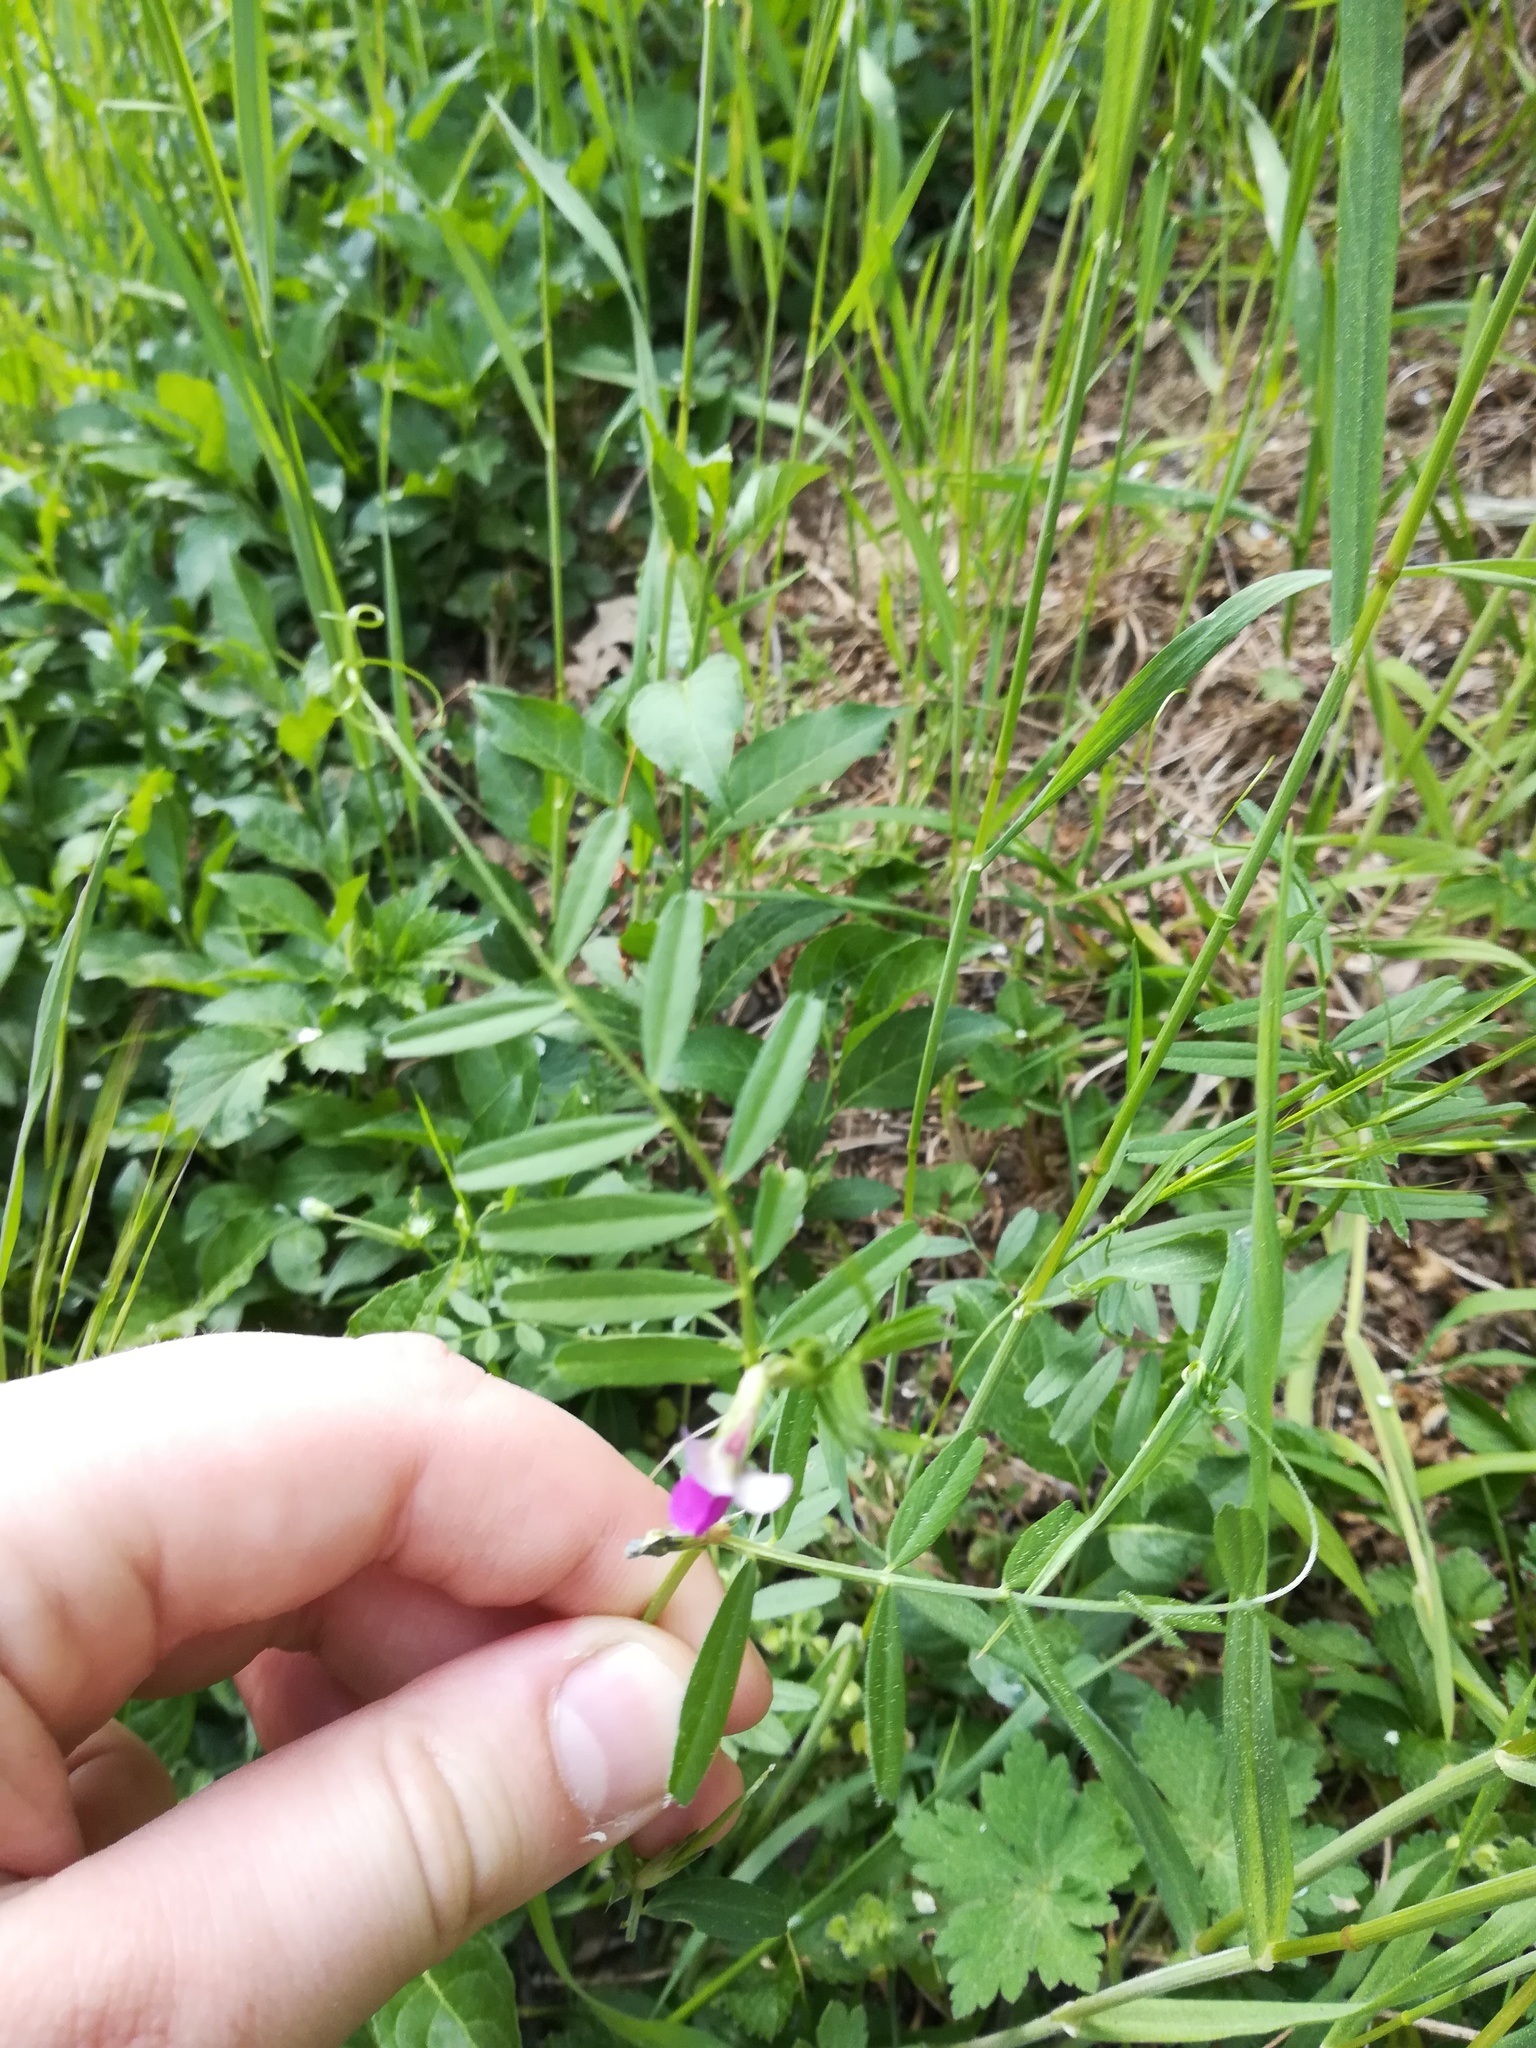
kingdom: Plantae
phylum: Tracheophyta
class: Magnoliopsida
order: Fabales
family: Fabaceae
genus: Vicia
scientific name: Vicia sativa
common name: Garden vetch
